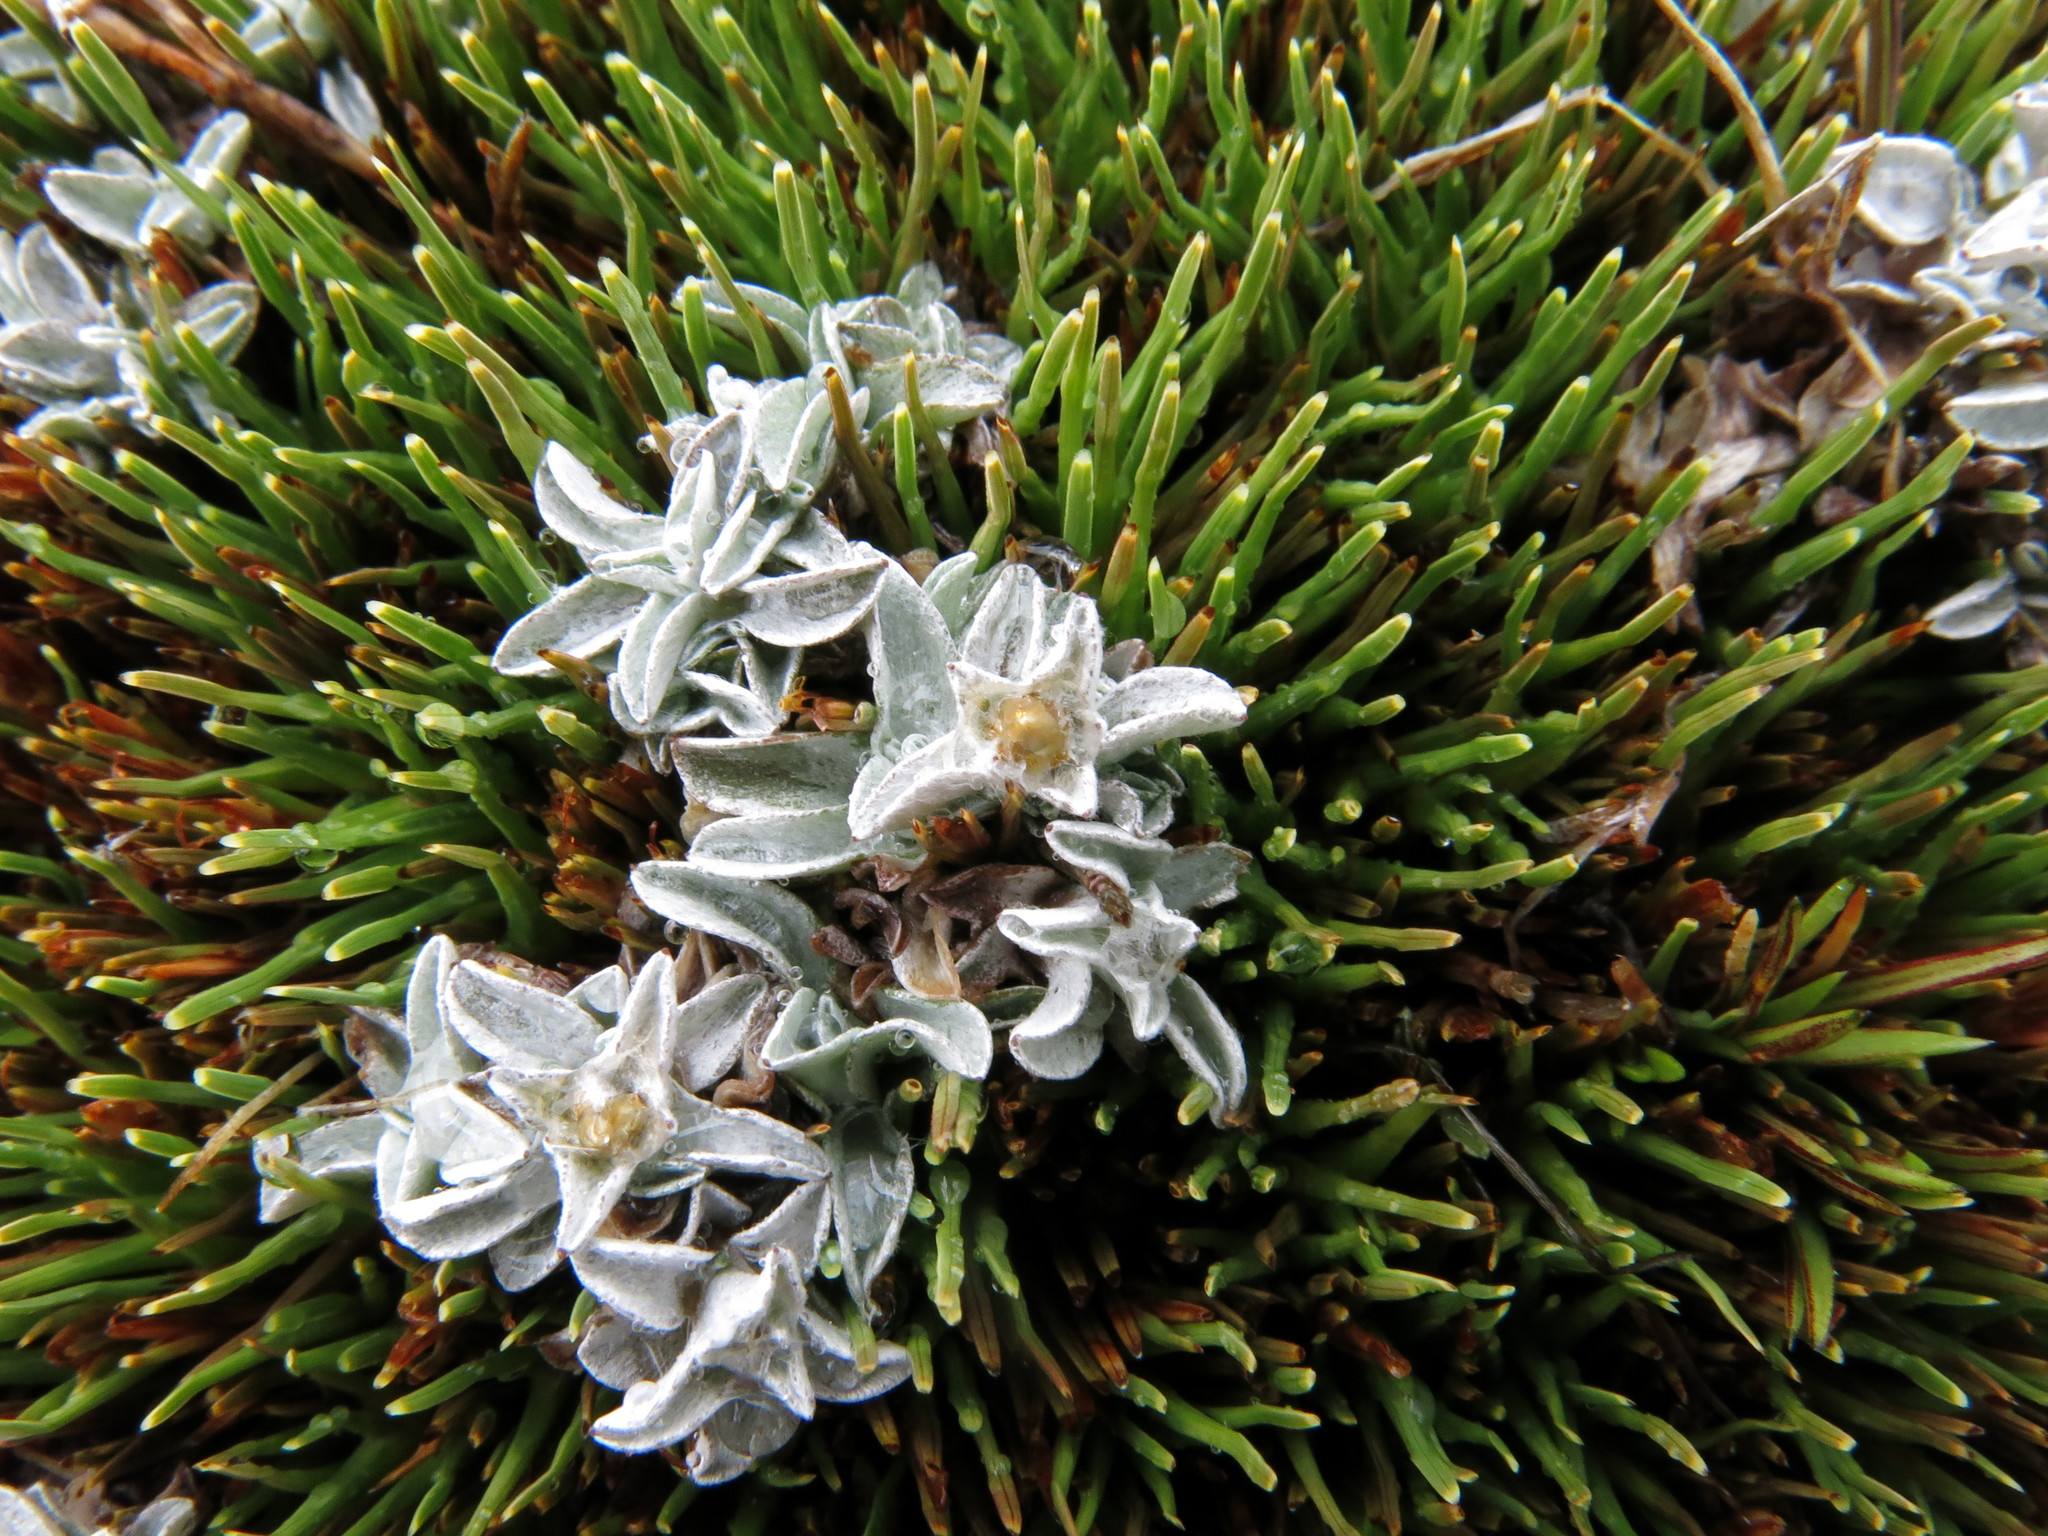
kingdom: Plantae
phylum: Tracheophyta
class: Magnoliopsida
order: Asterales
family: Asteraceae
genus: Argyrotegium
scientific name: Argyrotegium mackayi
